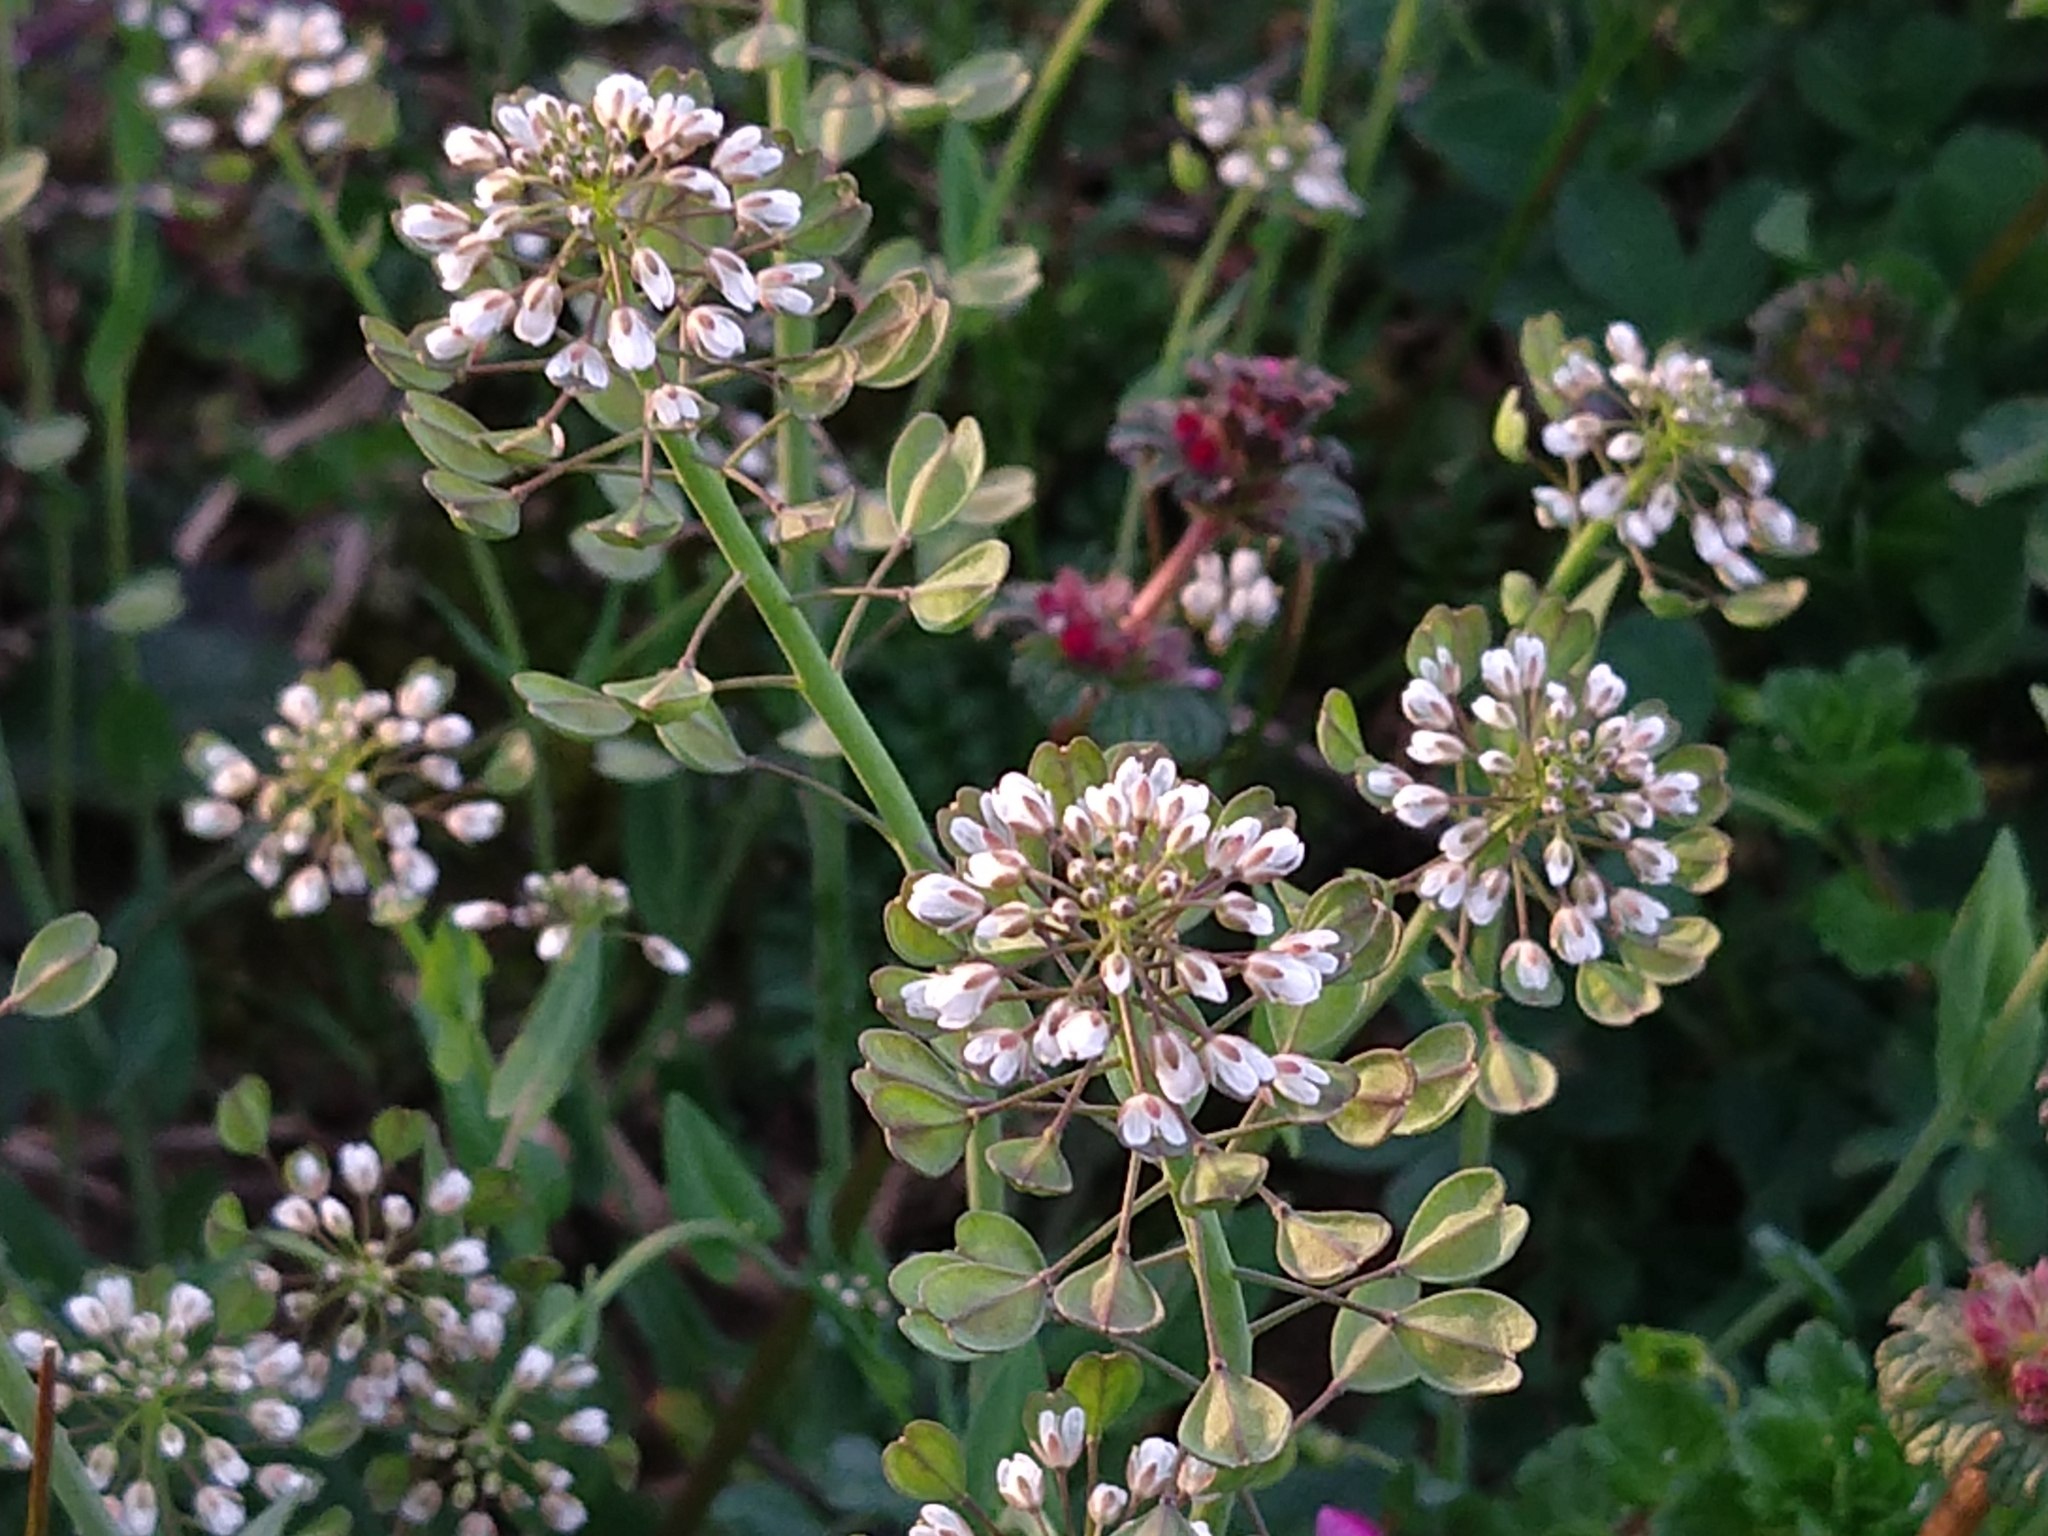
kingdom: Plantae
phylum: Tracheophyta
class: Magnoliopsida
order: Brassicales
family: Brassicaceae
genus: Noccaea
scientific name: Noccaea perfoliata
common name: Perfoliate pennycress
